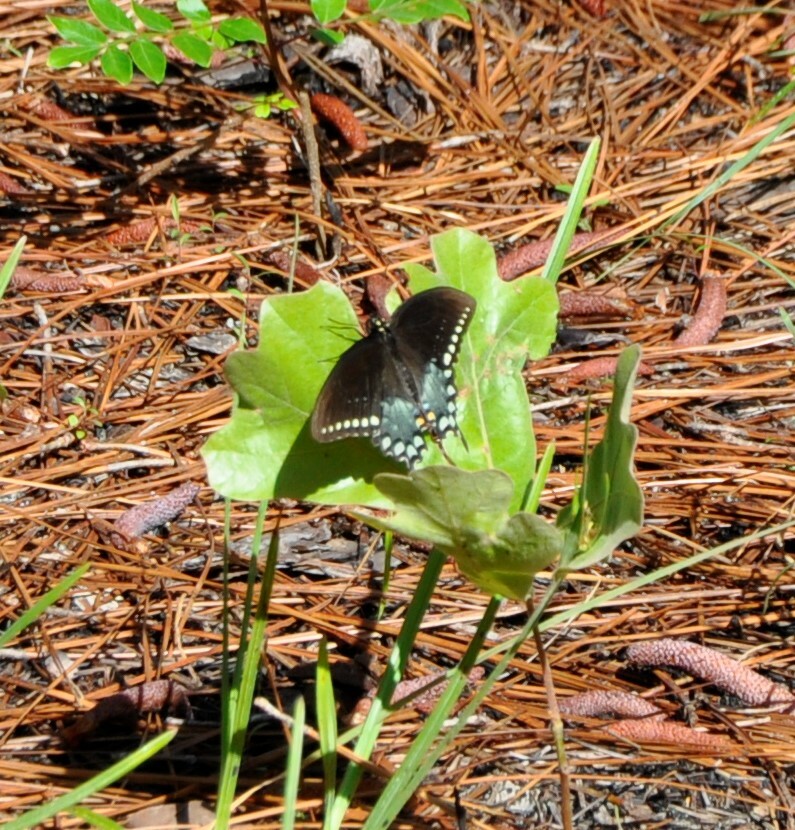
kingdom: Animalia
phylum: Arthropoda
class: Insecta
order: Lepidoptera
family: Papilionidae
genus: Papilio
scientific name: Papilio troilus
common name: Spicebush swallowtail
